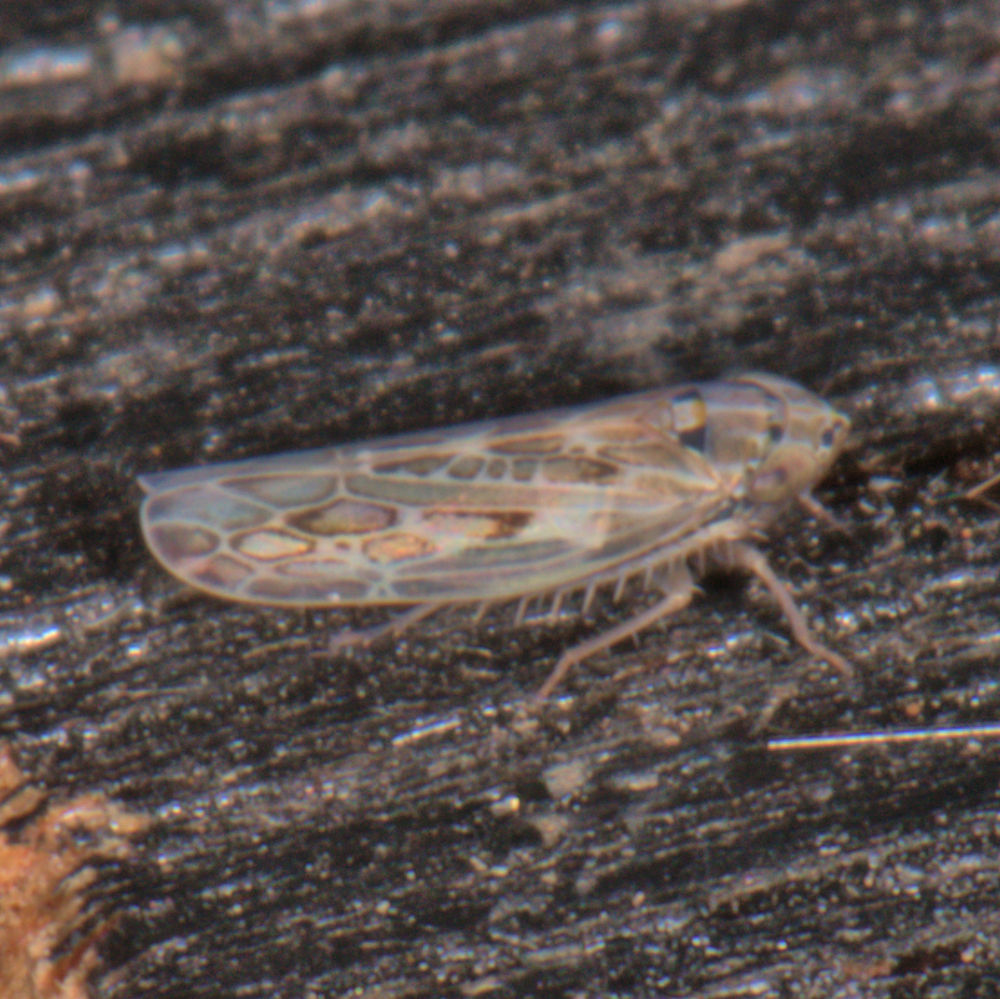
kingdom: Animalia
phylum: Arthropoda
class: Insecta
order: Hemiptera
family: Cicadellidae
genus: Endria
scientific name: Endria inimicus
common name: Painted leafhopper
